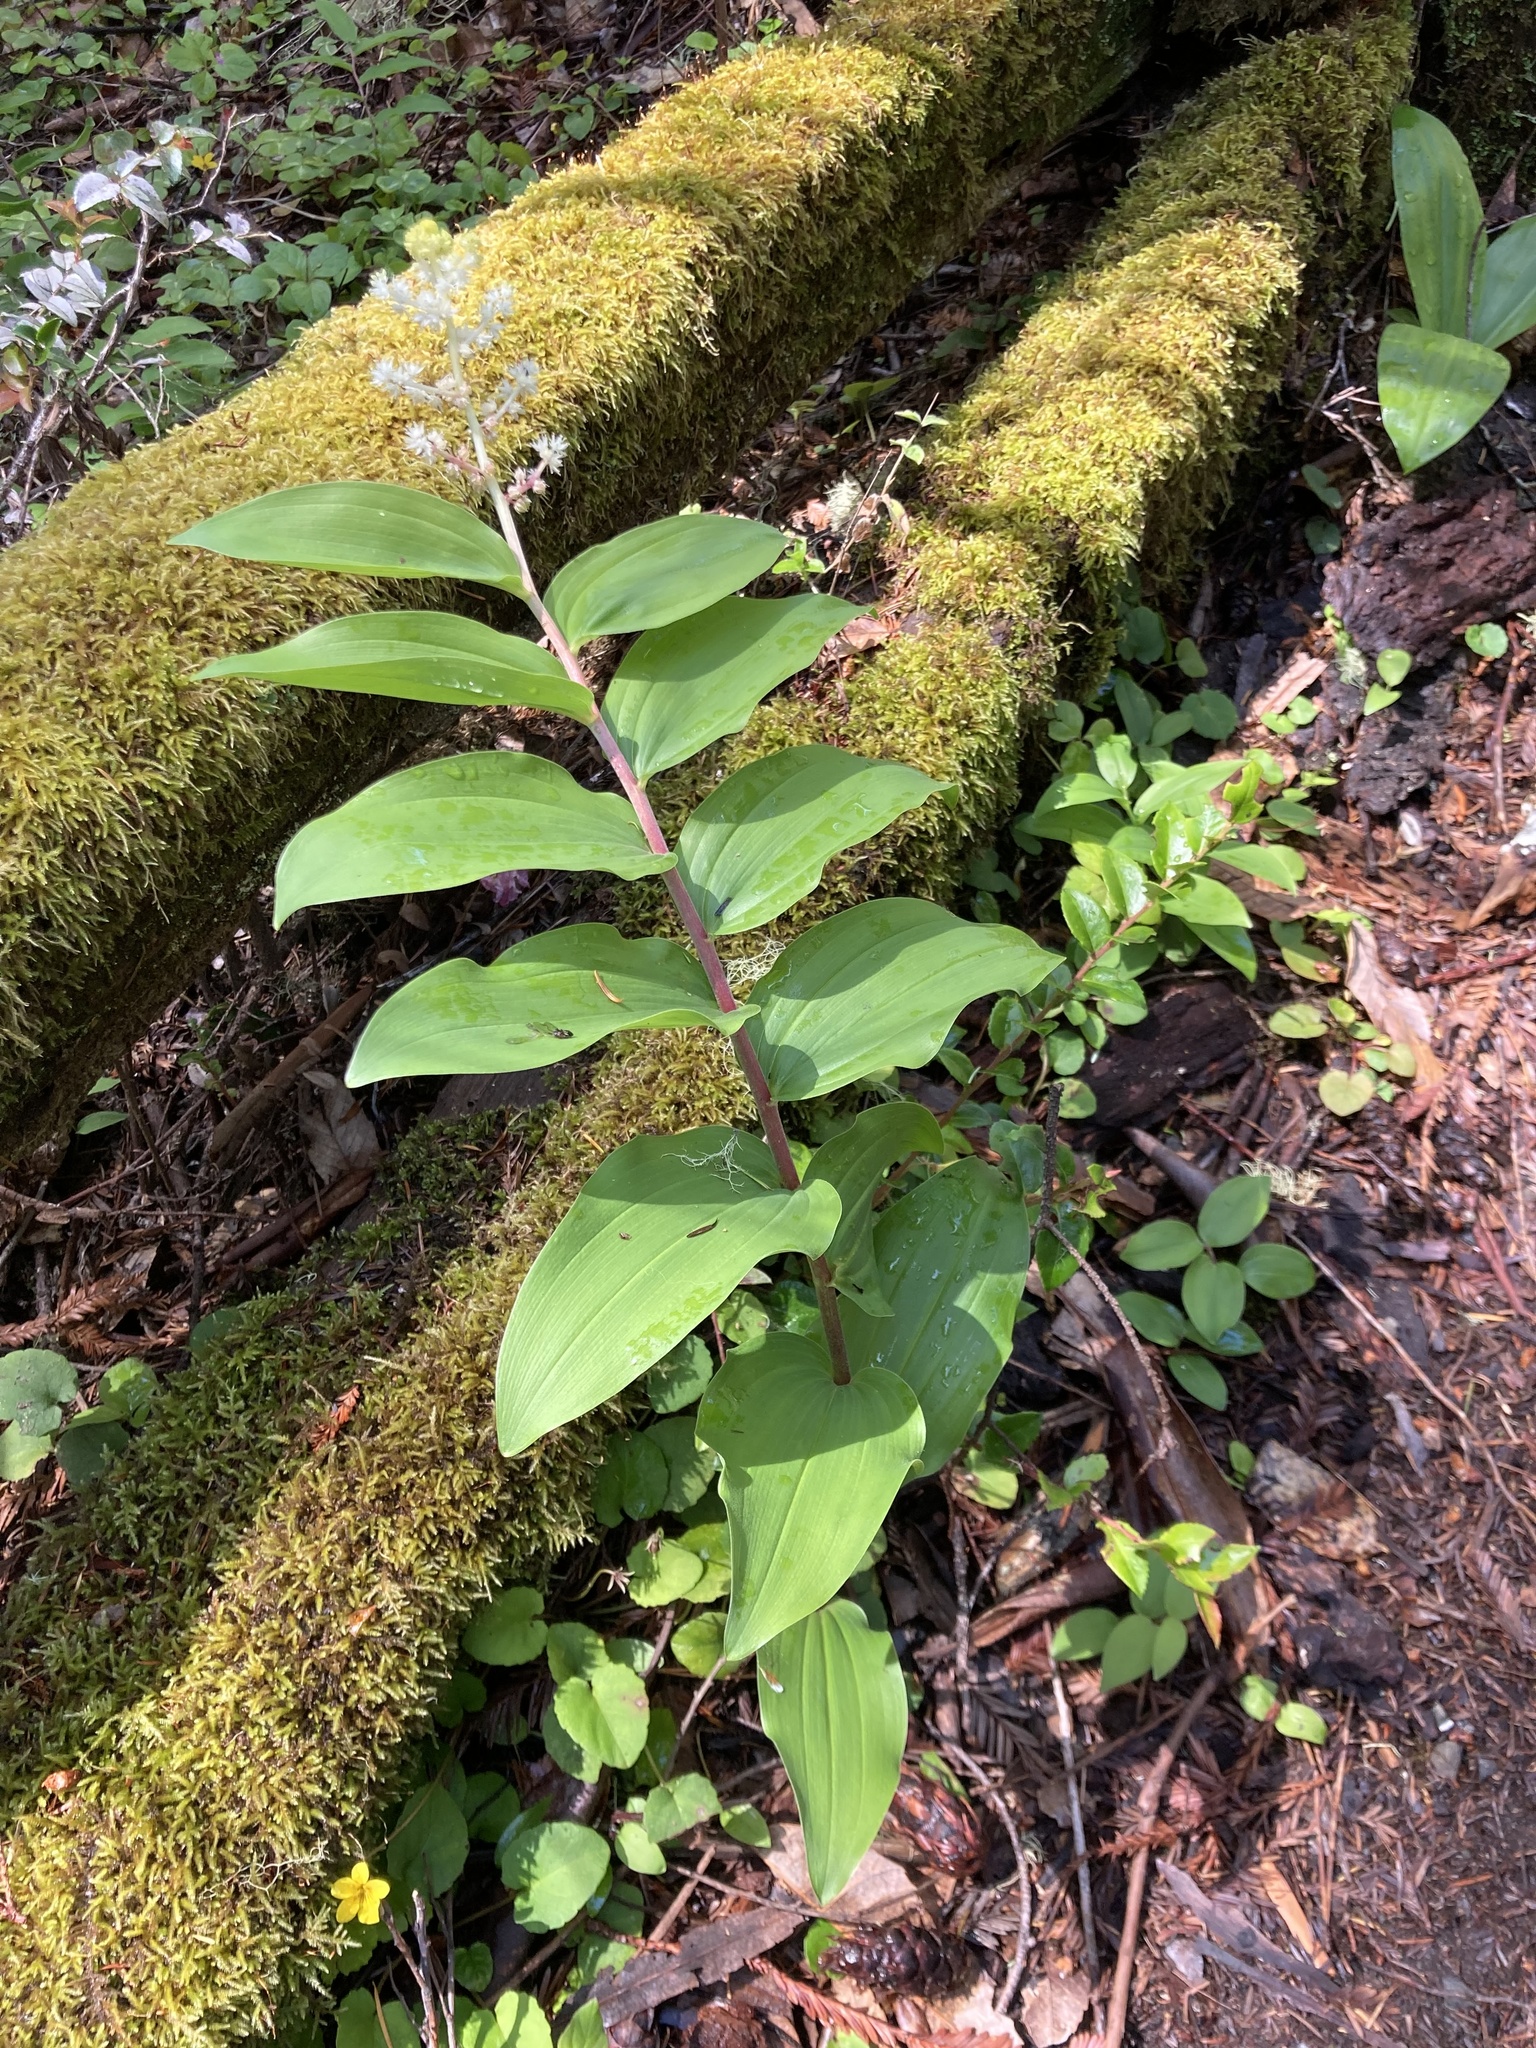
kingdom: Plantae
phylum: Tracheophyta
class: Liliopsida
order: Asparagales
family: Asparagaceae
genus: Maianthemum
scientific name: Maianthemum racemosum
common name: False spikenard
